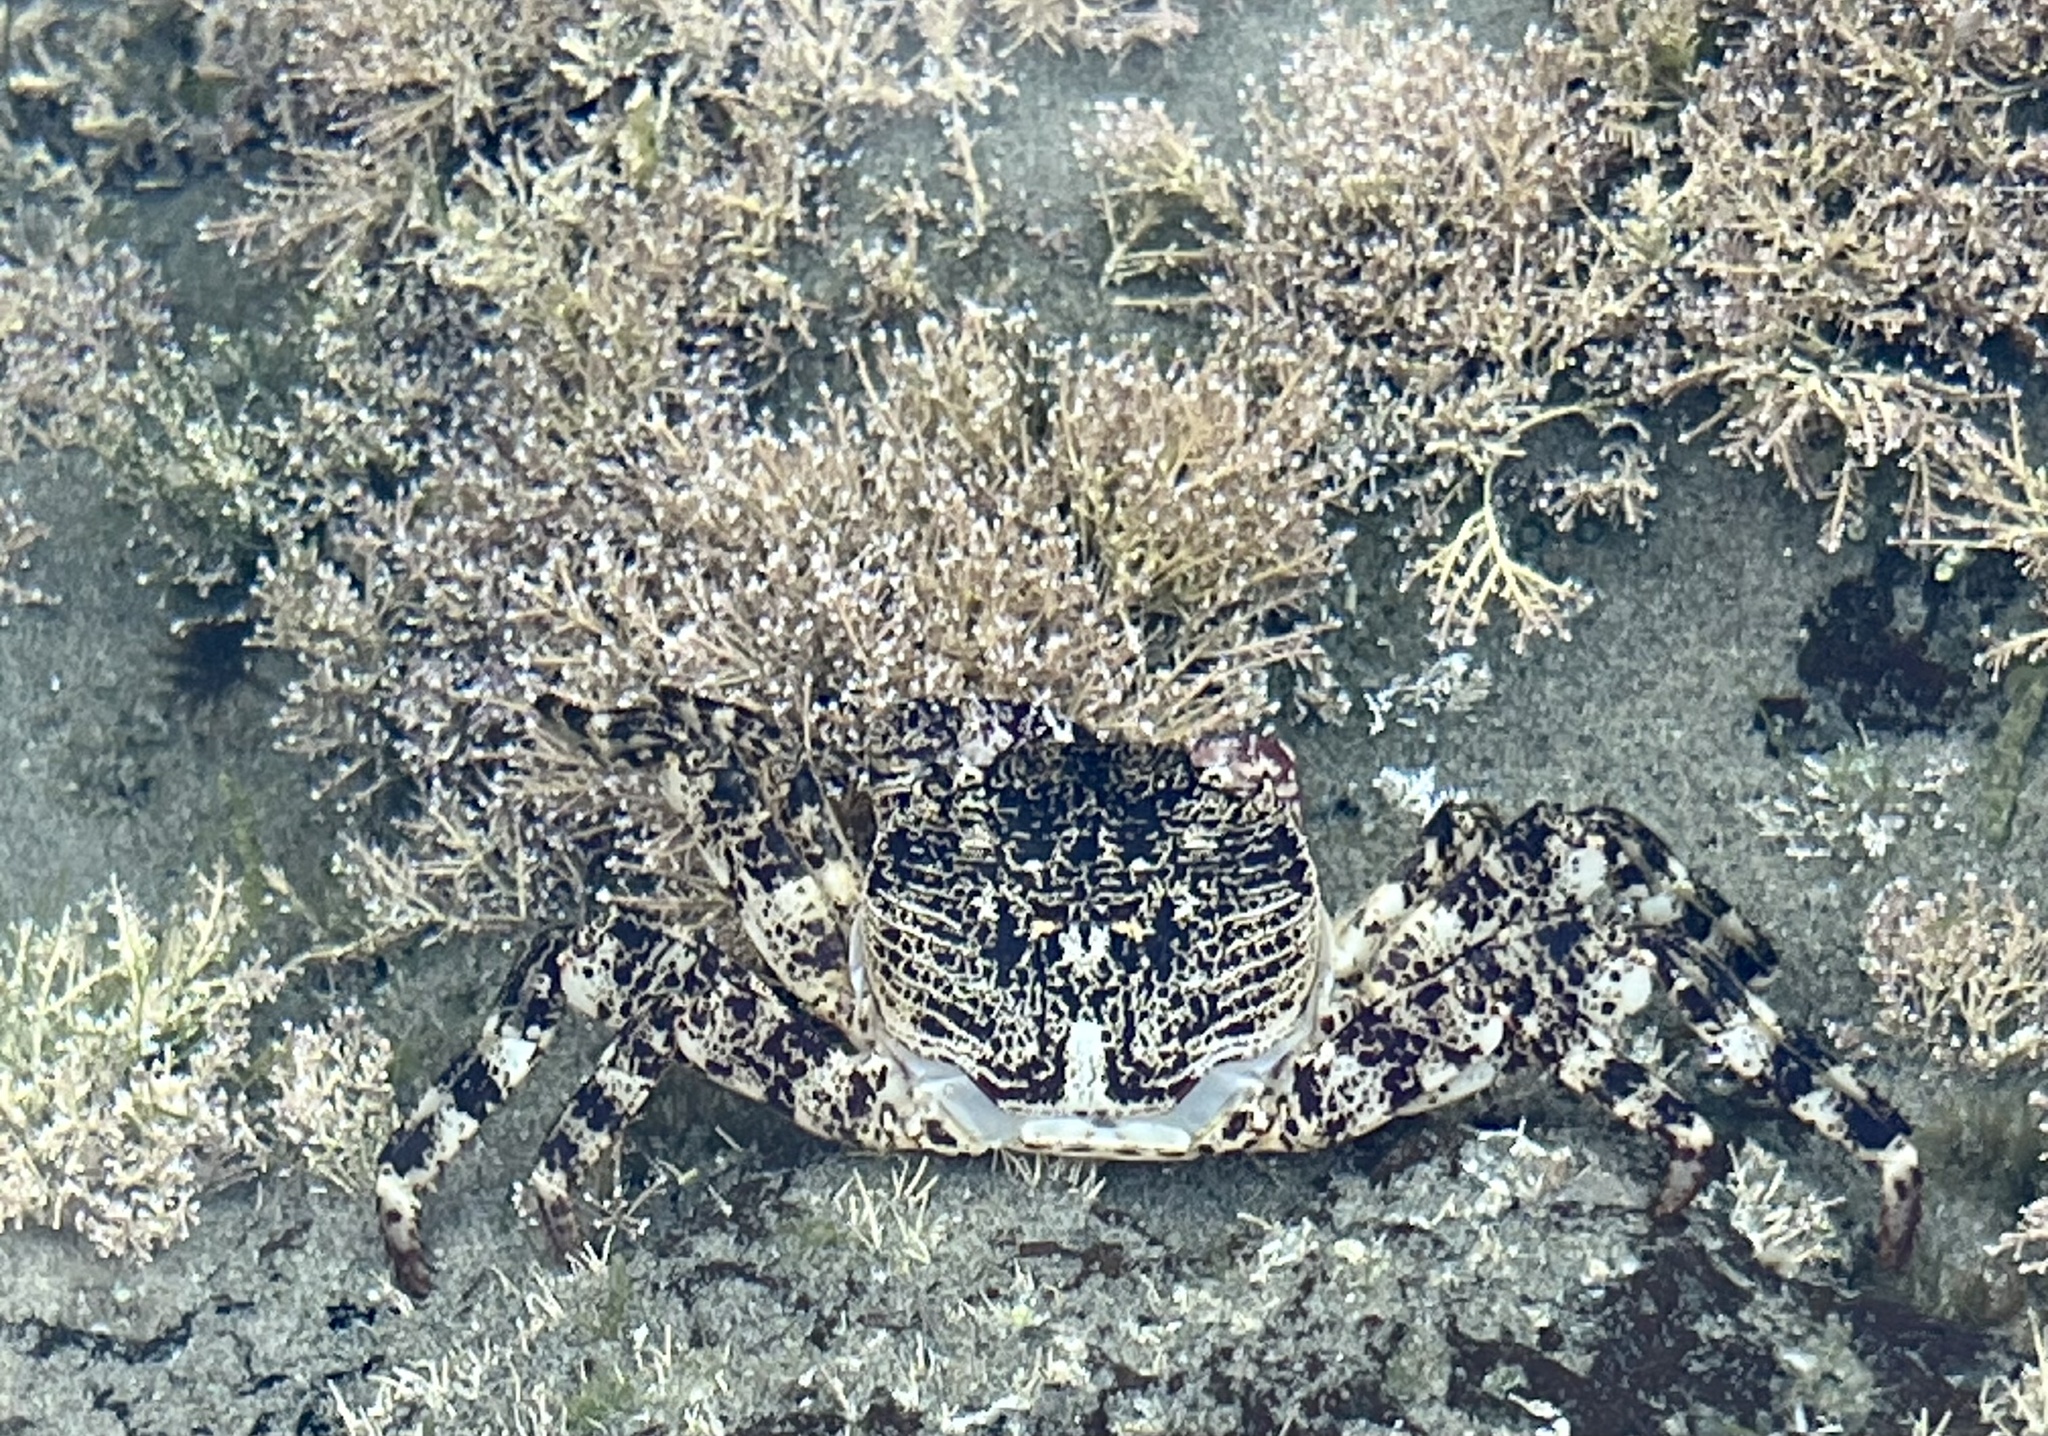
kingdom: Animalia
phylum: Arthropoda
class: Malacostraca
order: Decapoda
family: Grapsidae
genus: Leptograpsus
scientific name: Leptograpsus variegatus
